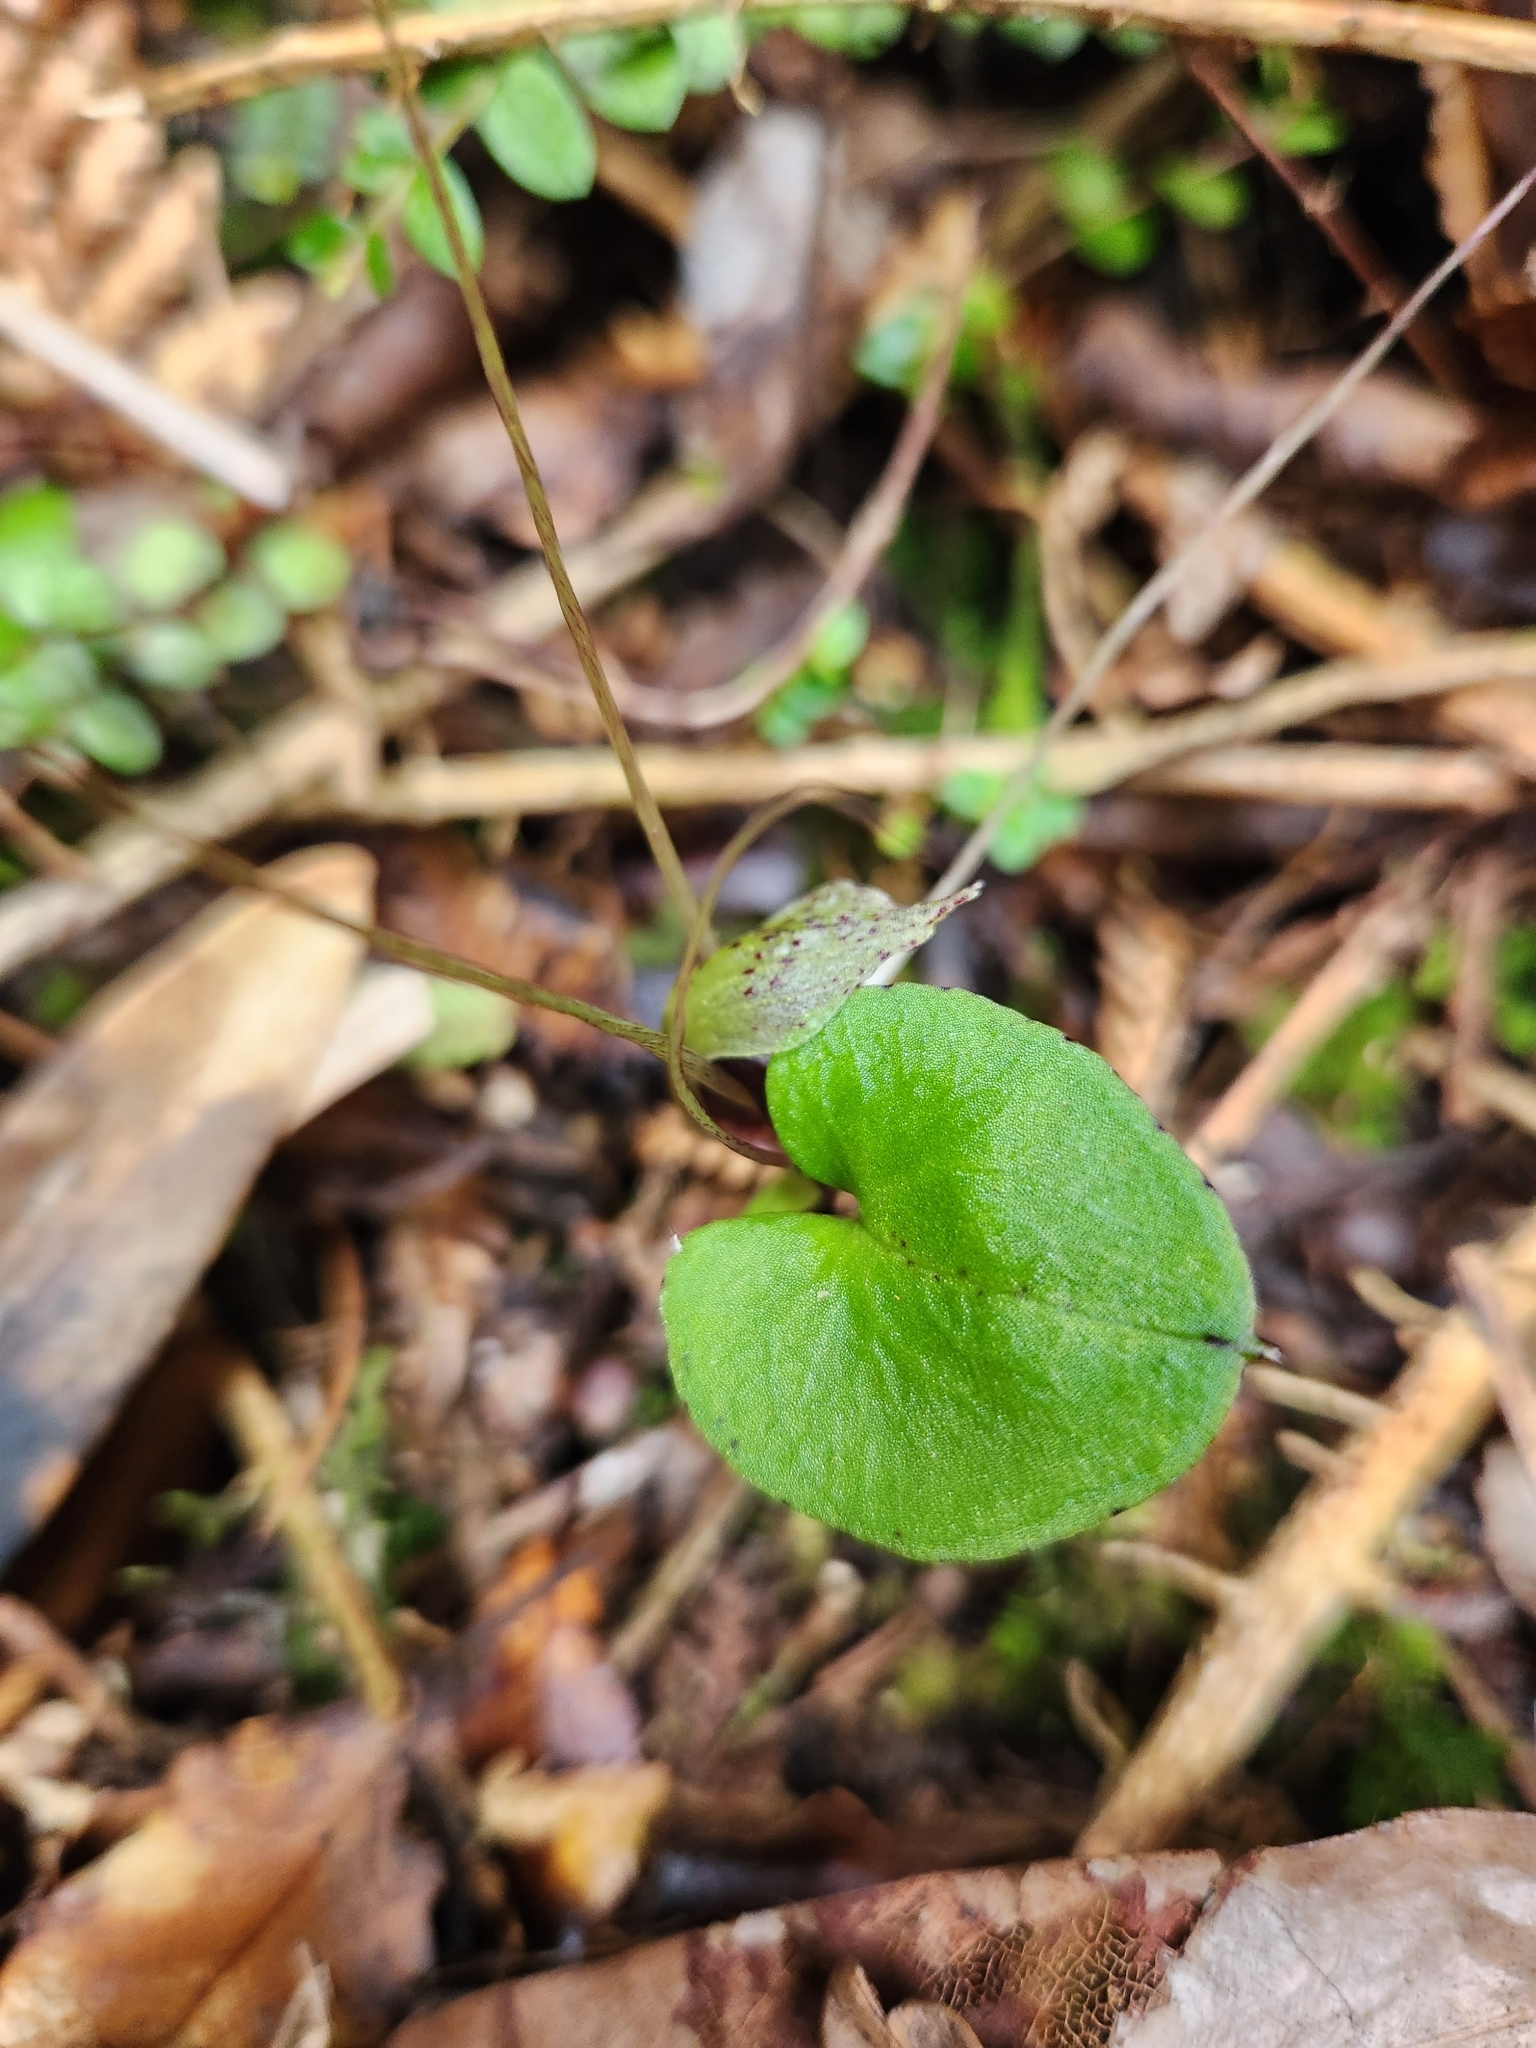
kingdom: Plantae
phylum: Tracheophyta
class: Liliopsida
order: Asparagales
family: Orchidaceae
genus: Corybas
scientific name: Corybas hatchii
